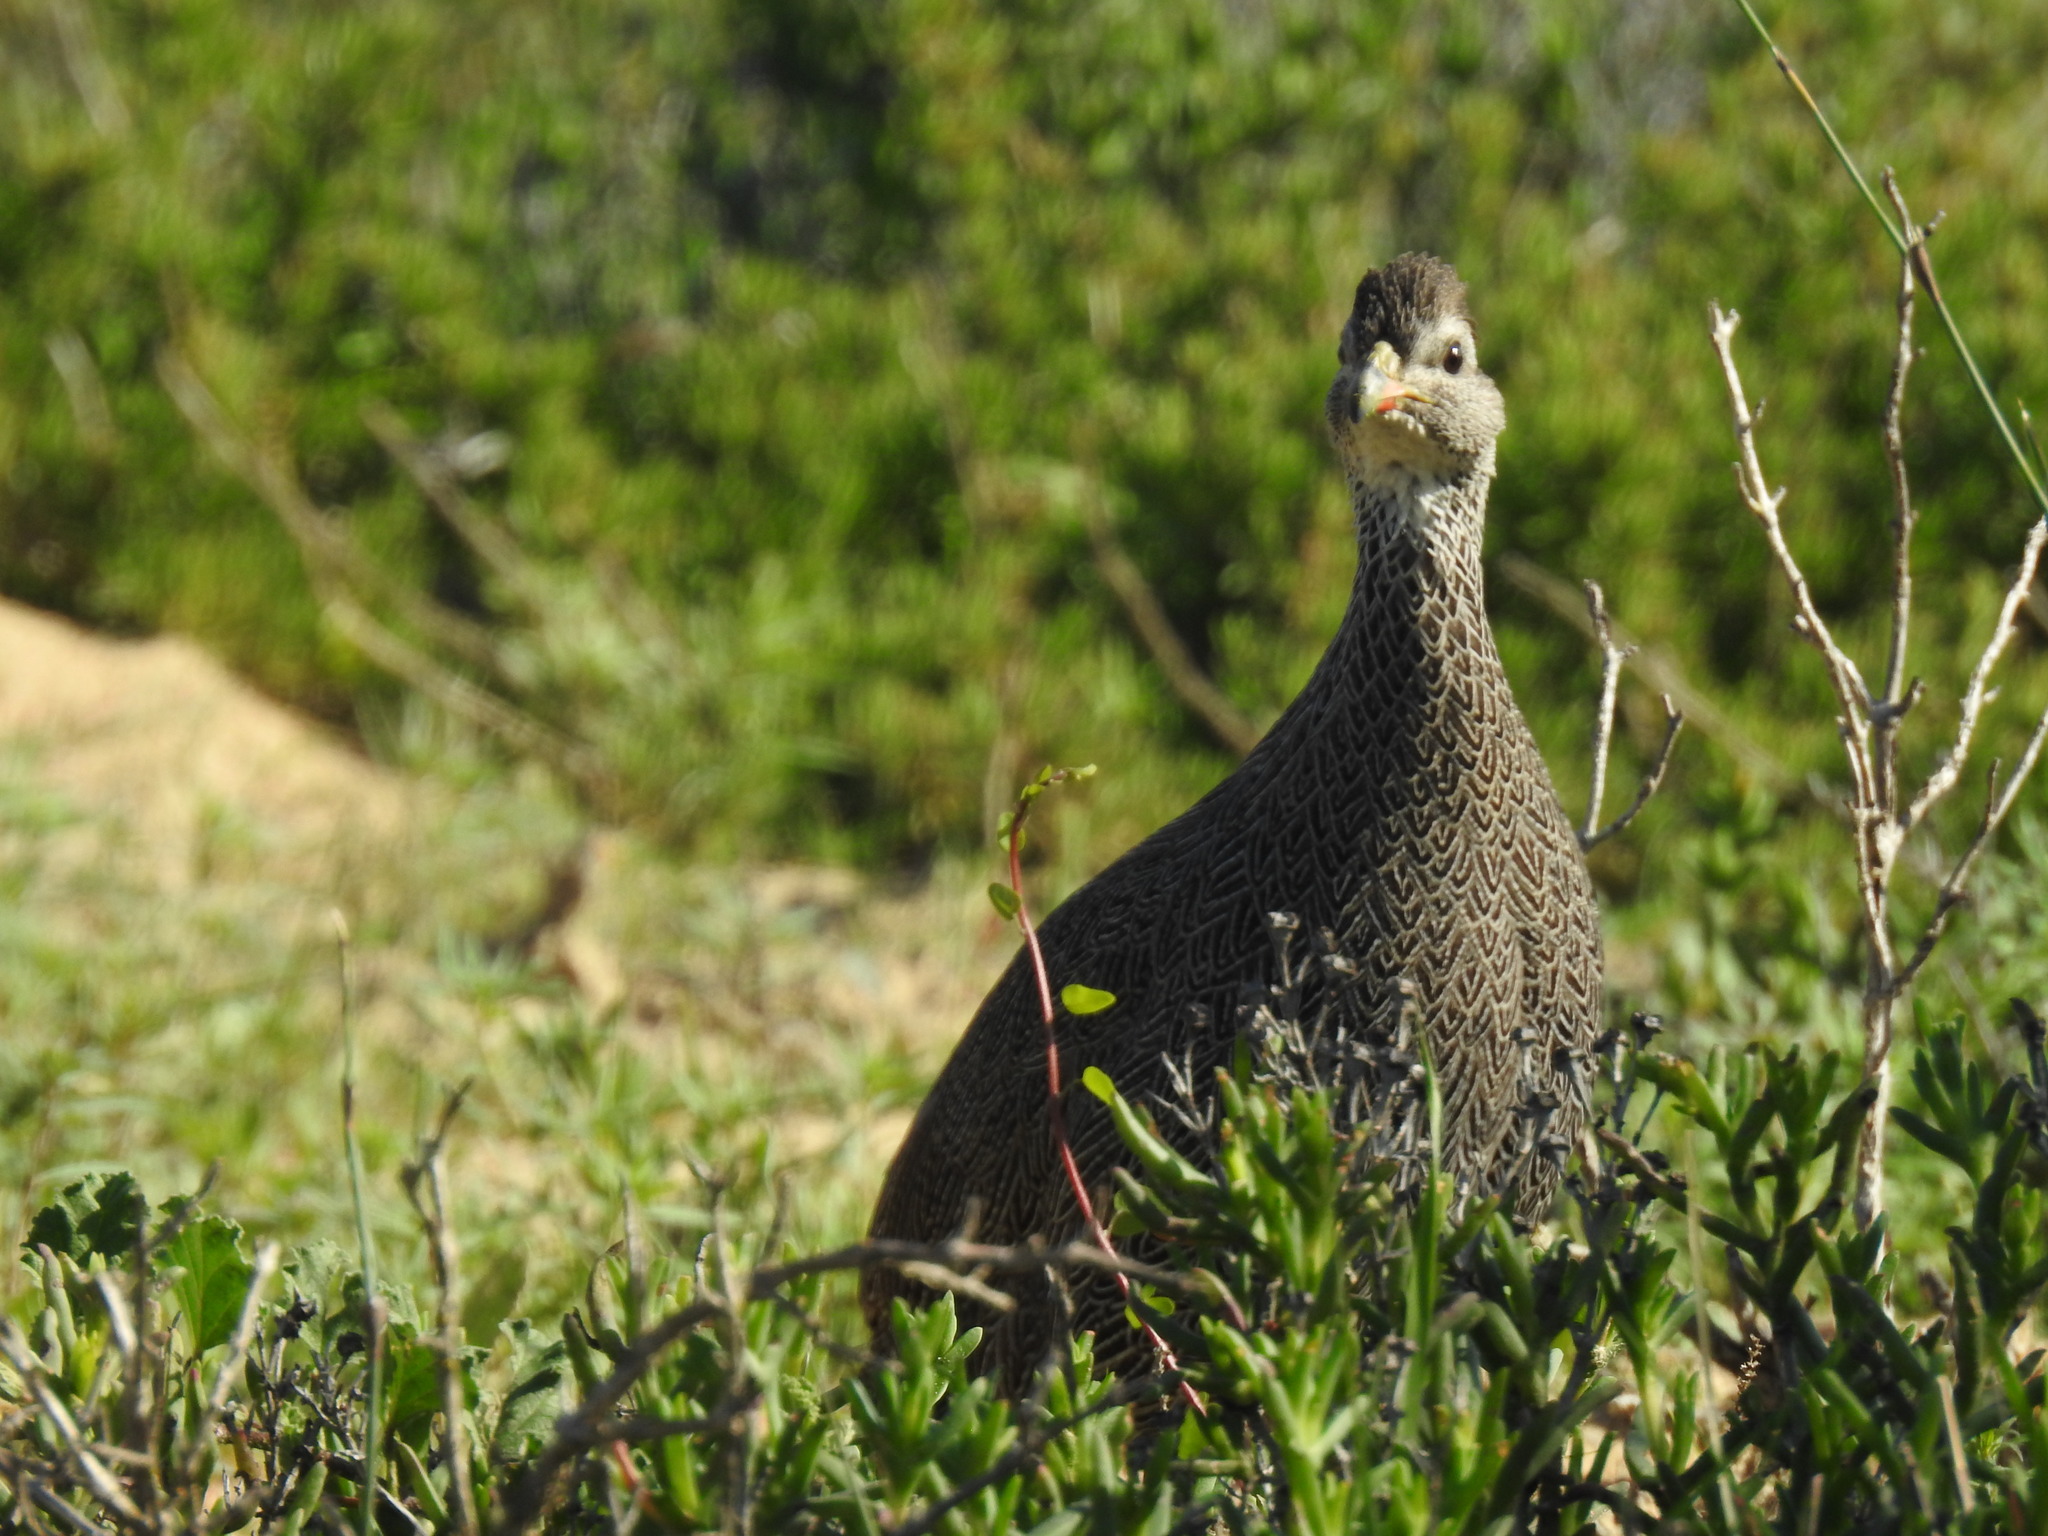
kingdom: Animalia
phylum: Chordata
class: Aves
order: Galliformes
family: Phasianidae
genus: Pternistis
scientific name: Pternistis capensis
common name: Cape spurfowl
